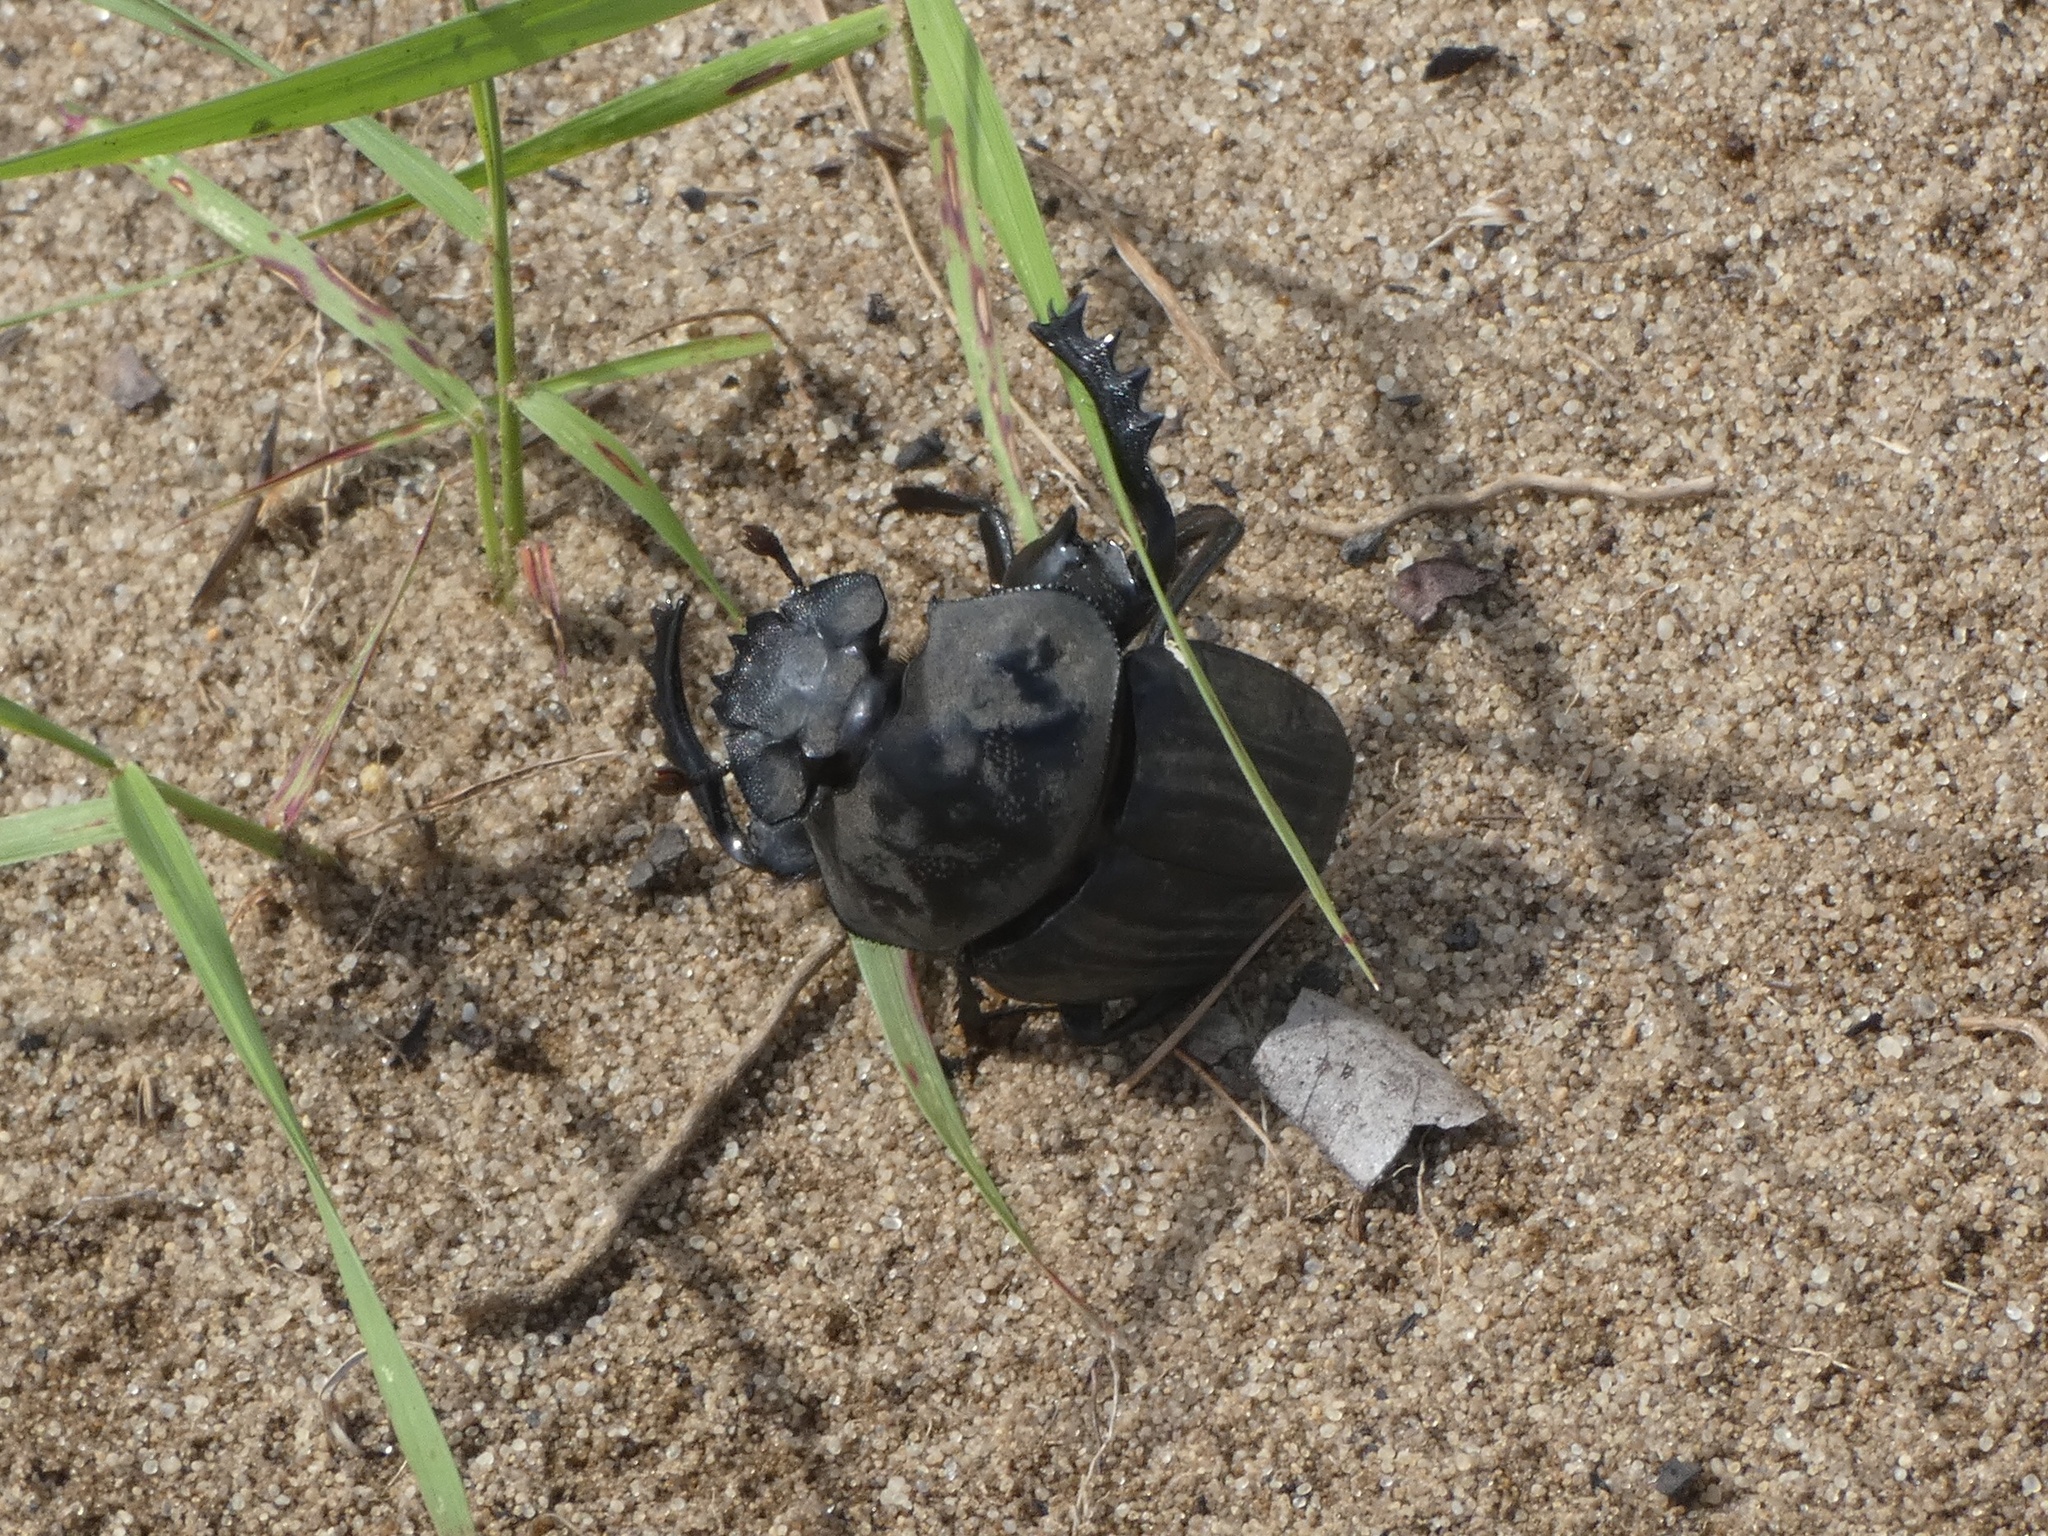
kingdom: Animalia
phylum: Arthropoda
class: Insecta
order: Coleoptera
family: Scarabaeidae
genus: Pachylomera
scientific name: Pachylomera femoralis
